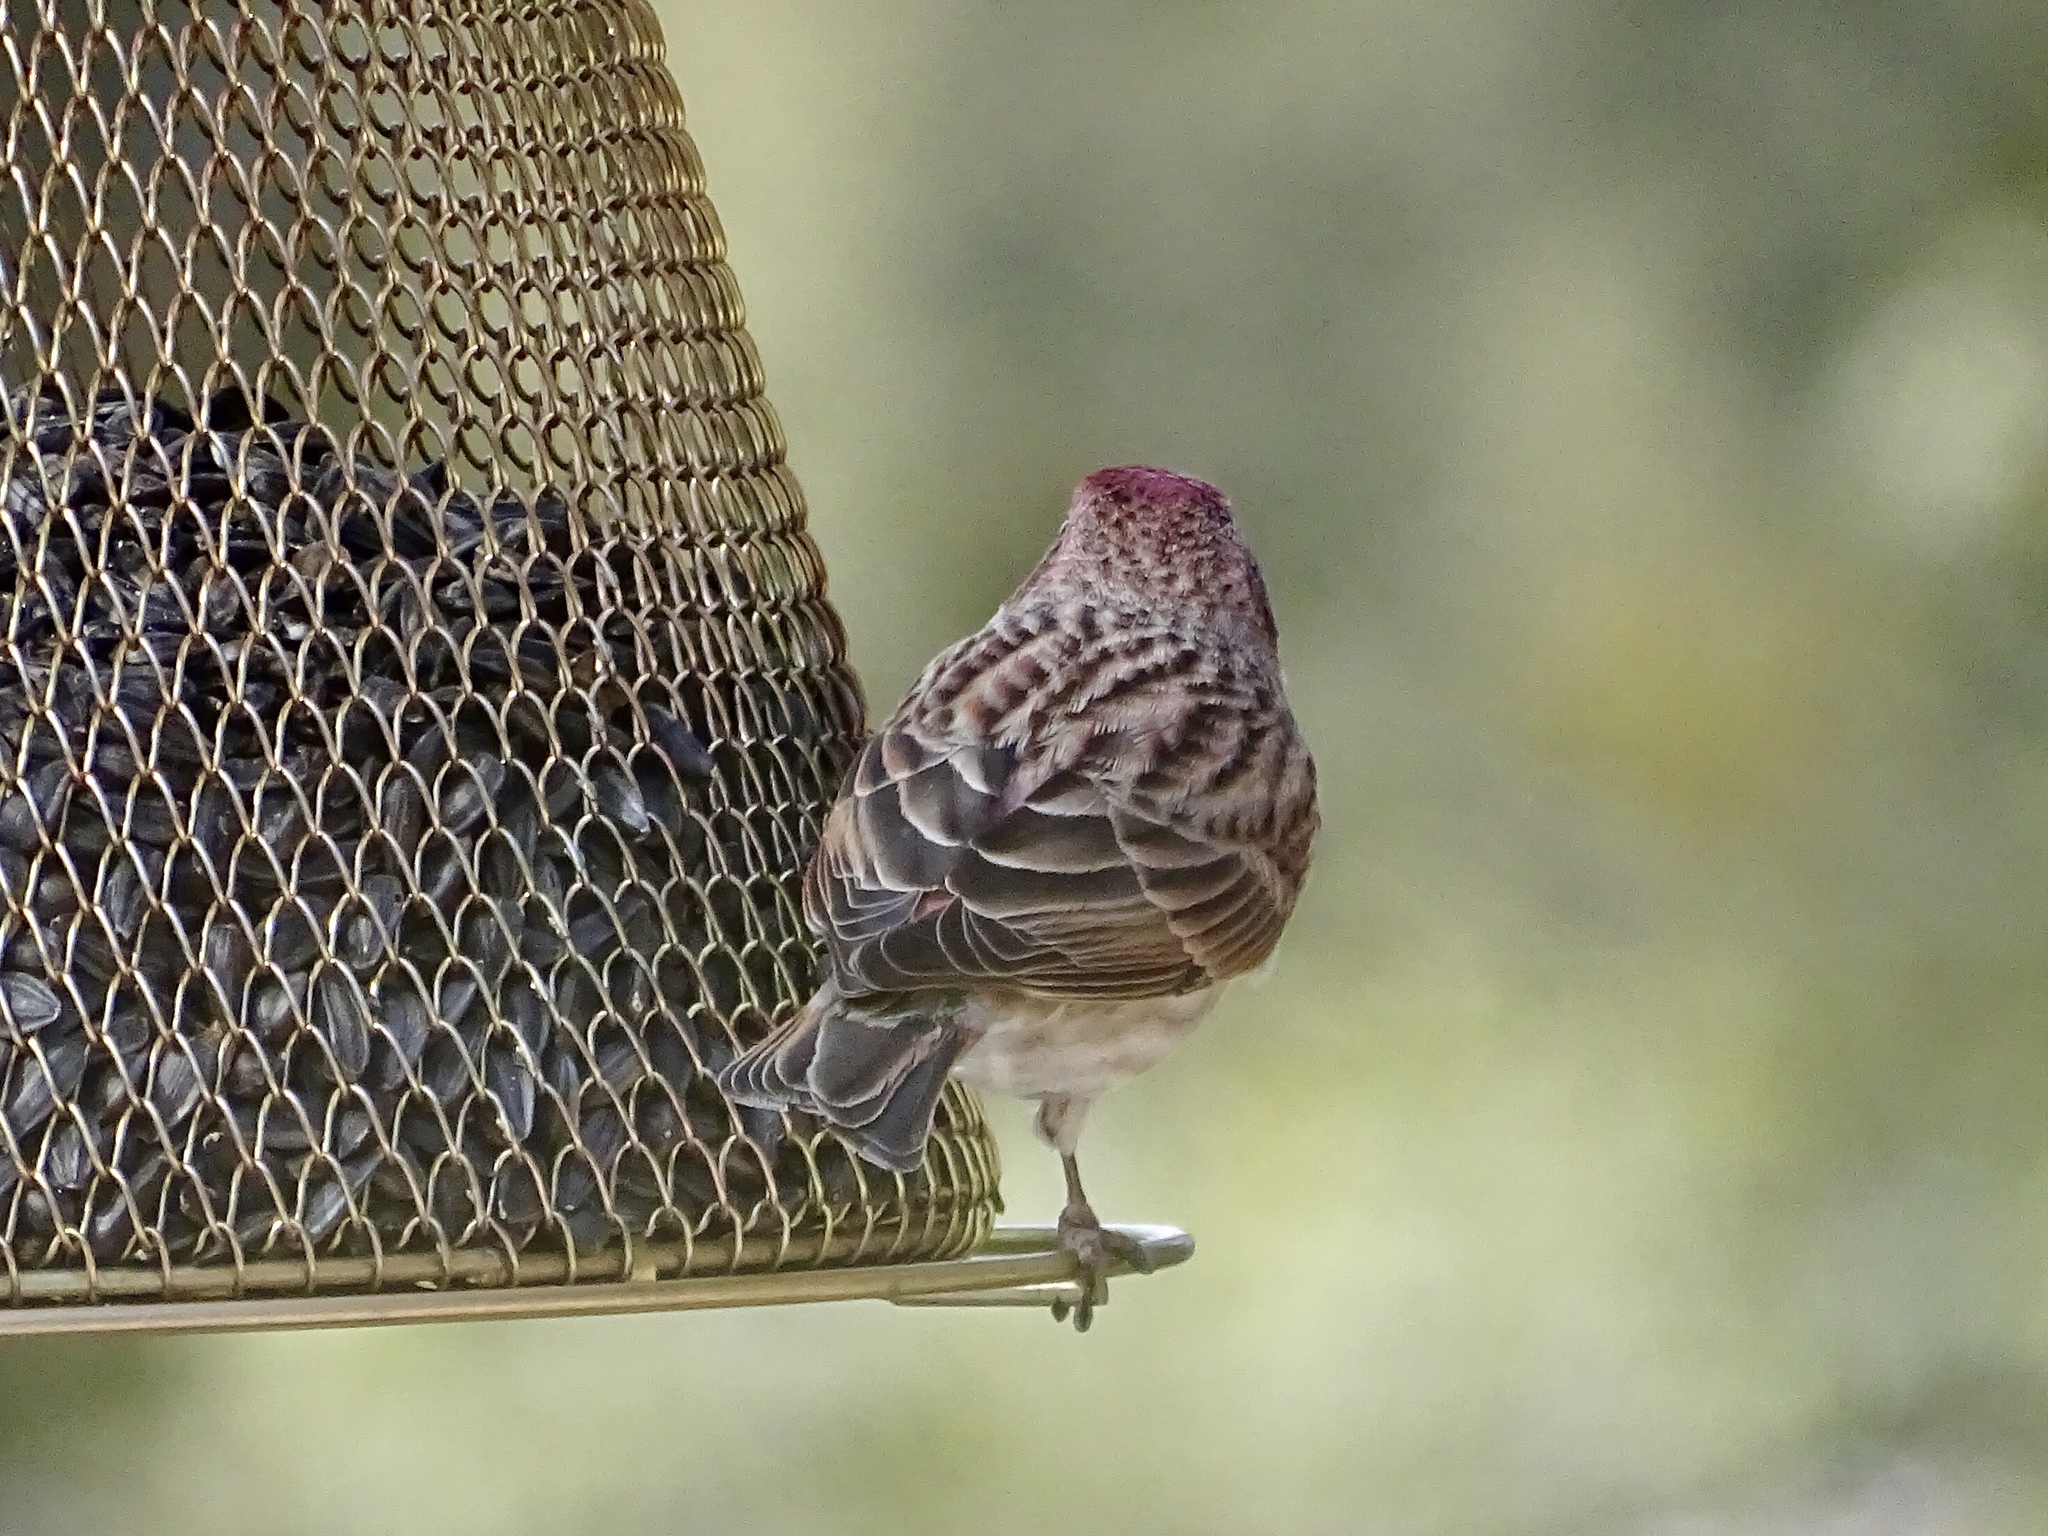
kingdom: Animalia
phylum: Chordata
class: Aves
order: Passeriformes
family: Fringillidae
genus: Haemorhous
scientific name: Haemorhous cassinii
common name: Cassin's finch
